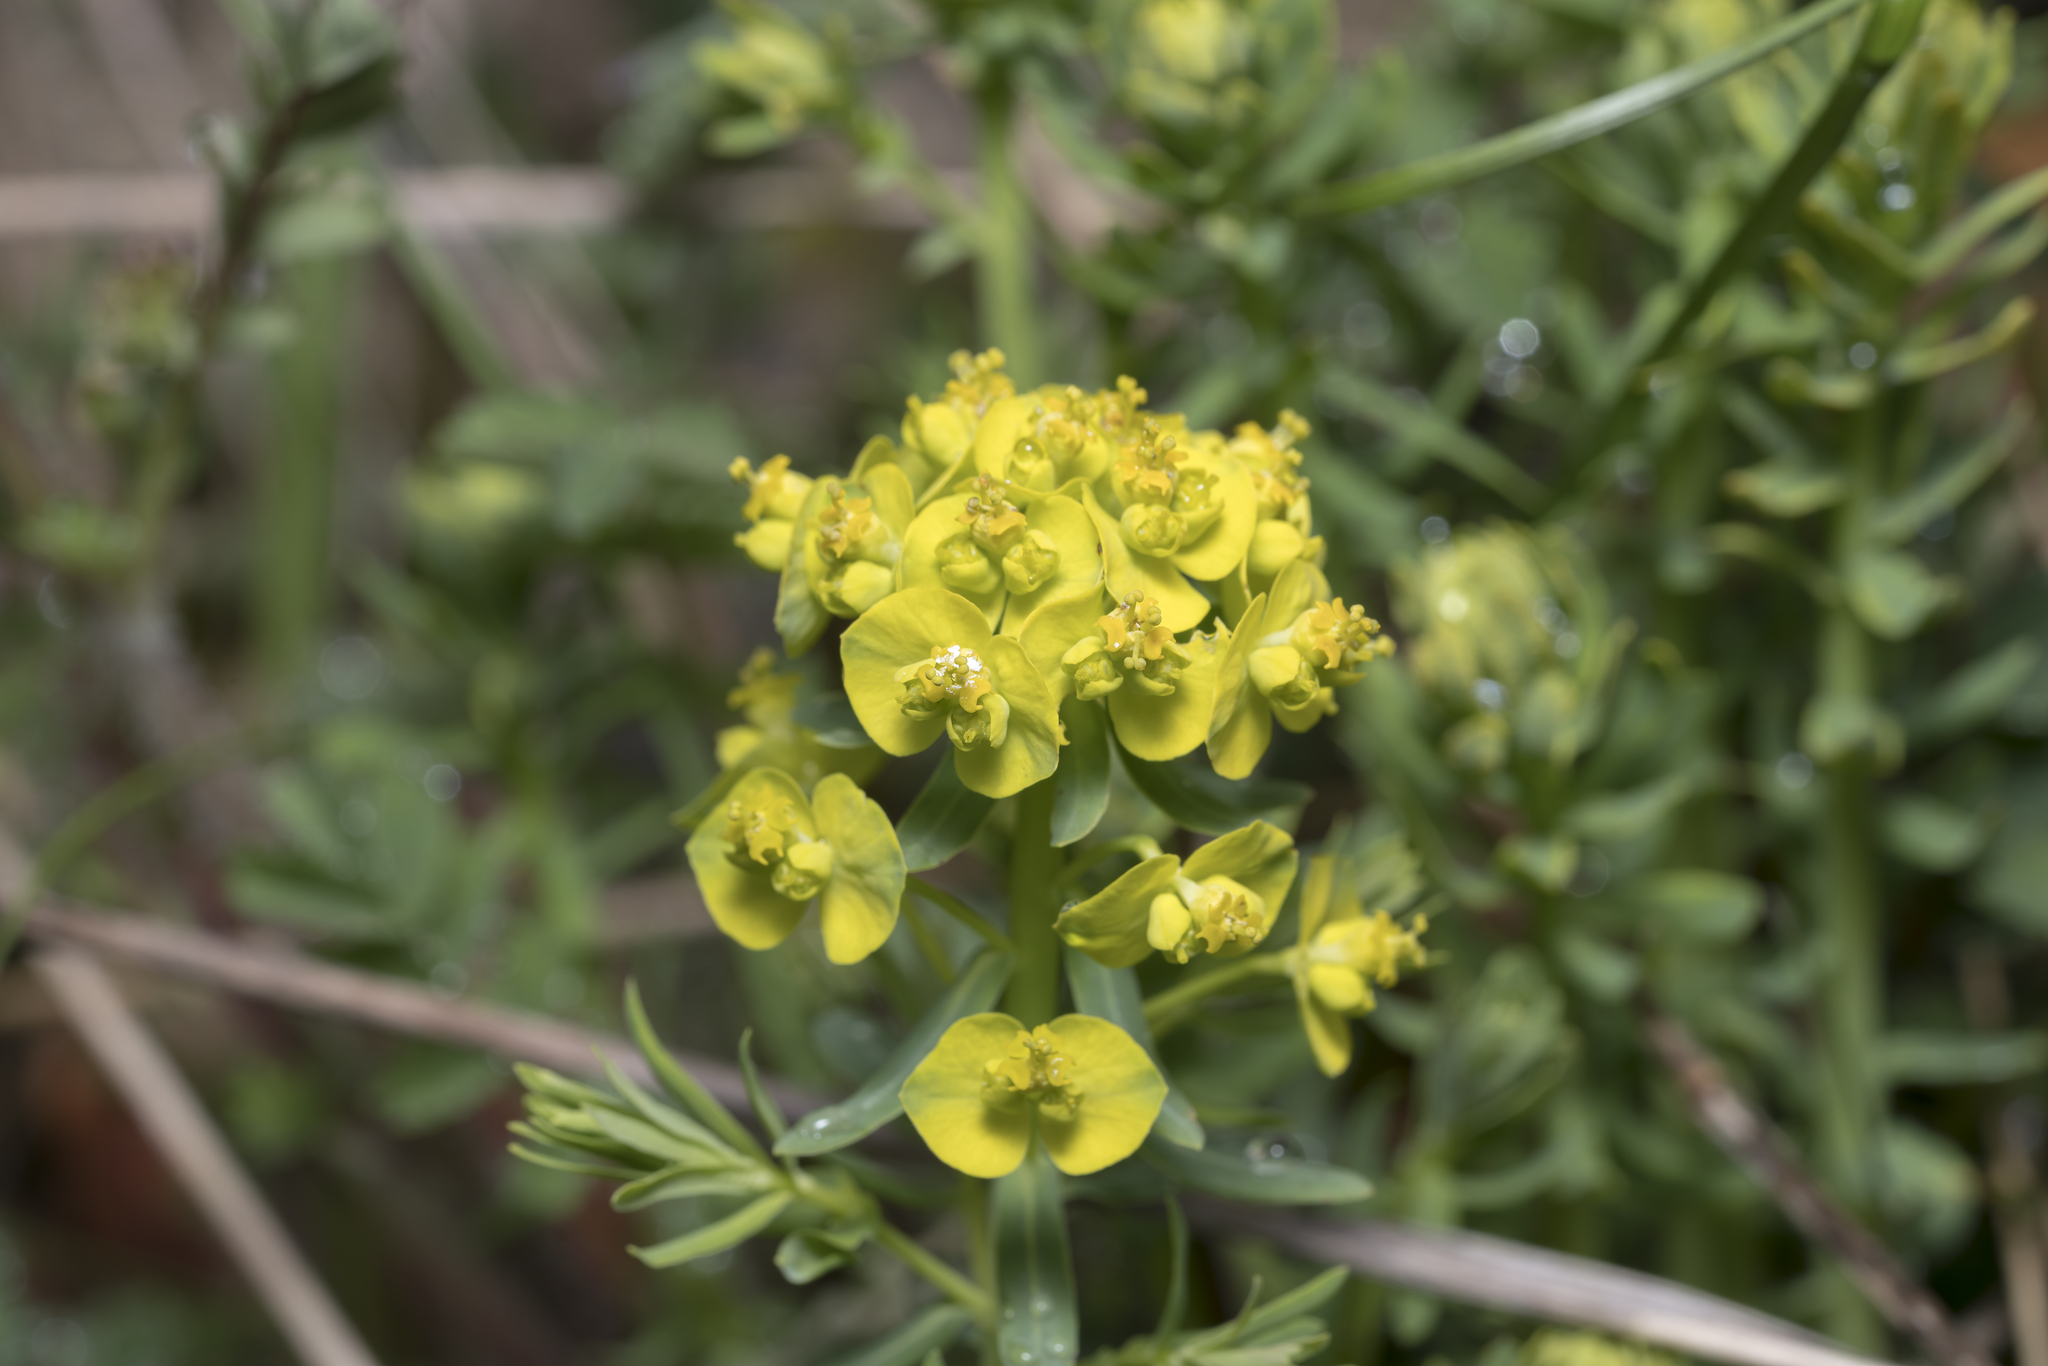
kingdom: Plantae
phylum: Tracheophyta
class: Magnoliopsida
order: Malpighiales
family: Euphorbiaceae
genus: Euphorbia
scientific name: Euphorbia cyparissias
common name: Cypress spurge
